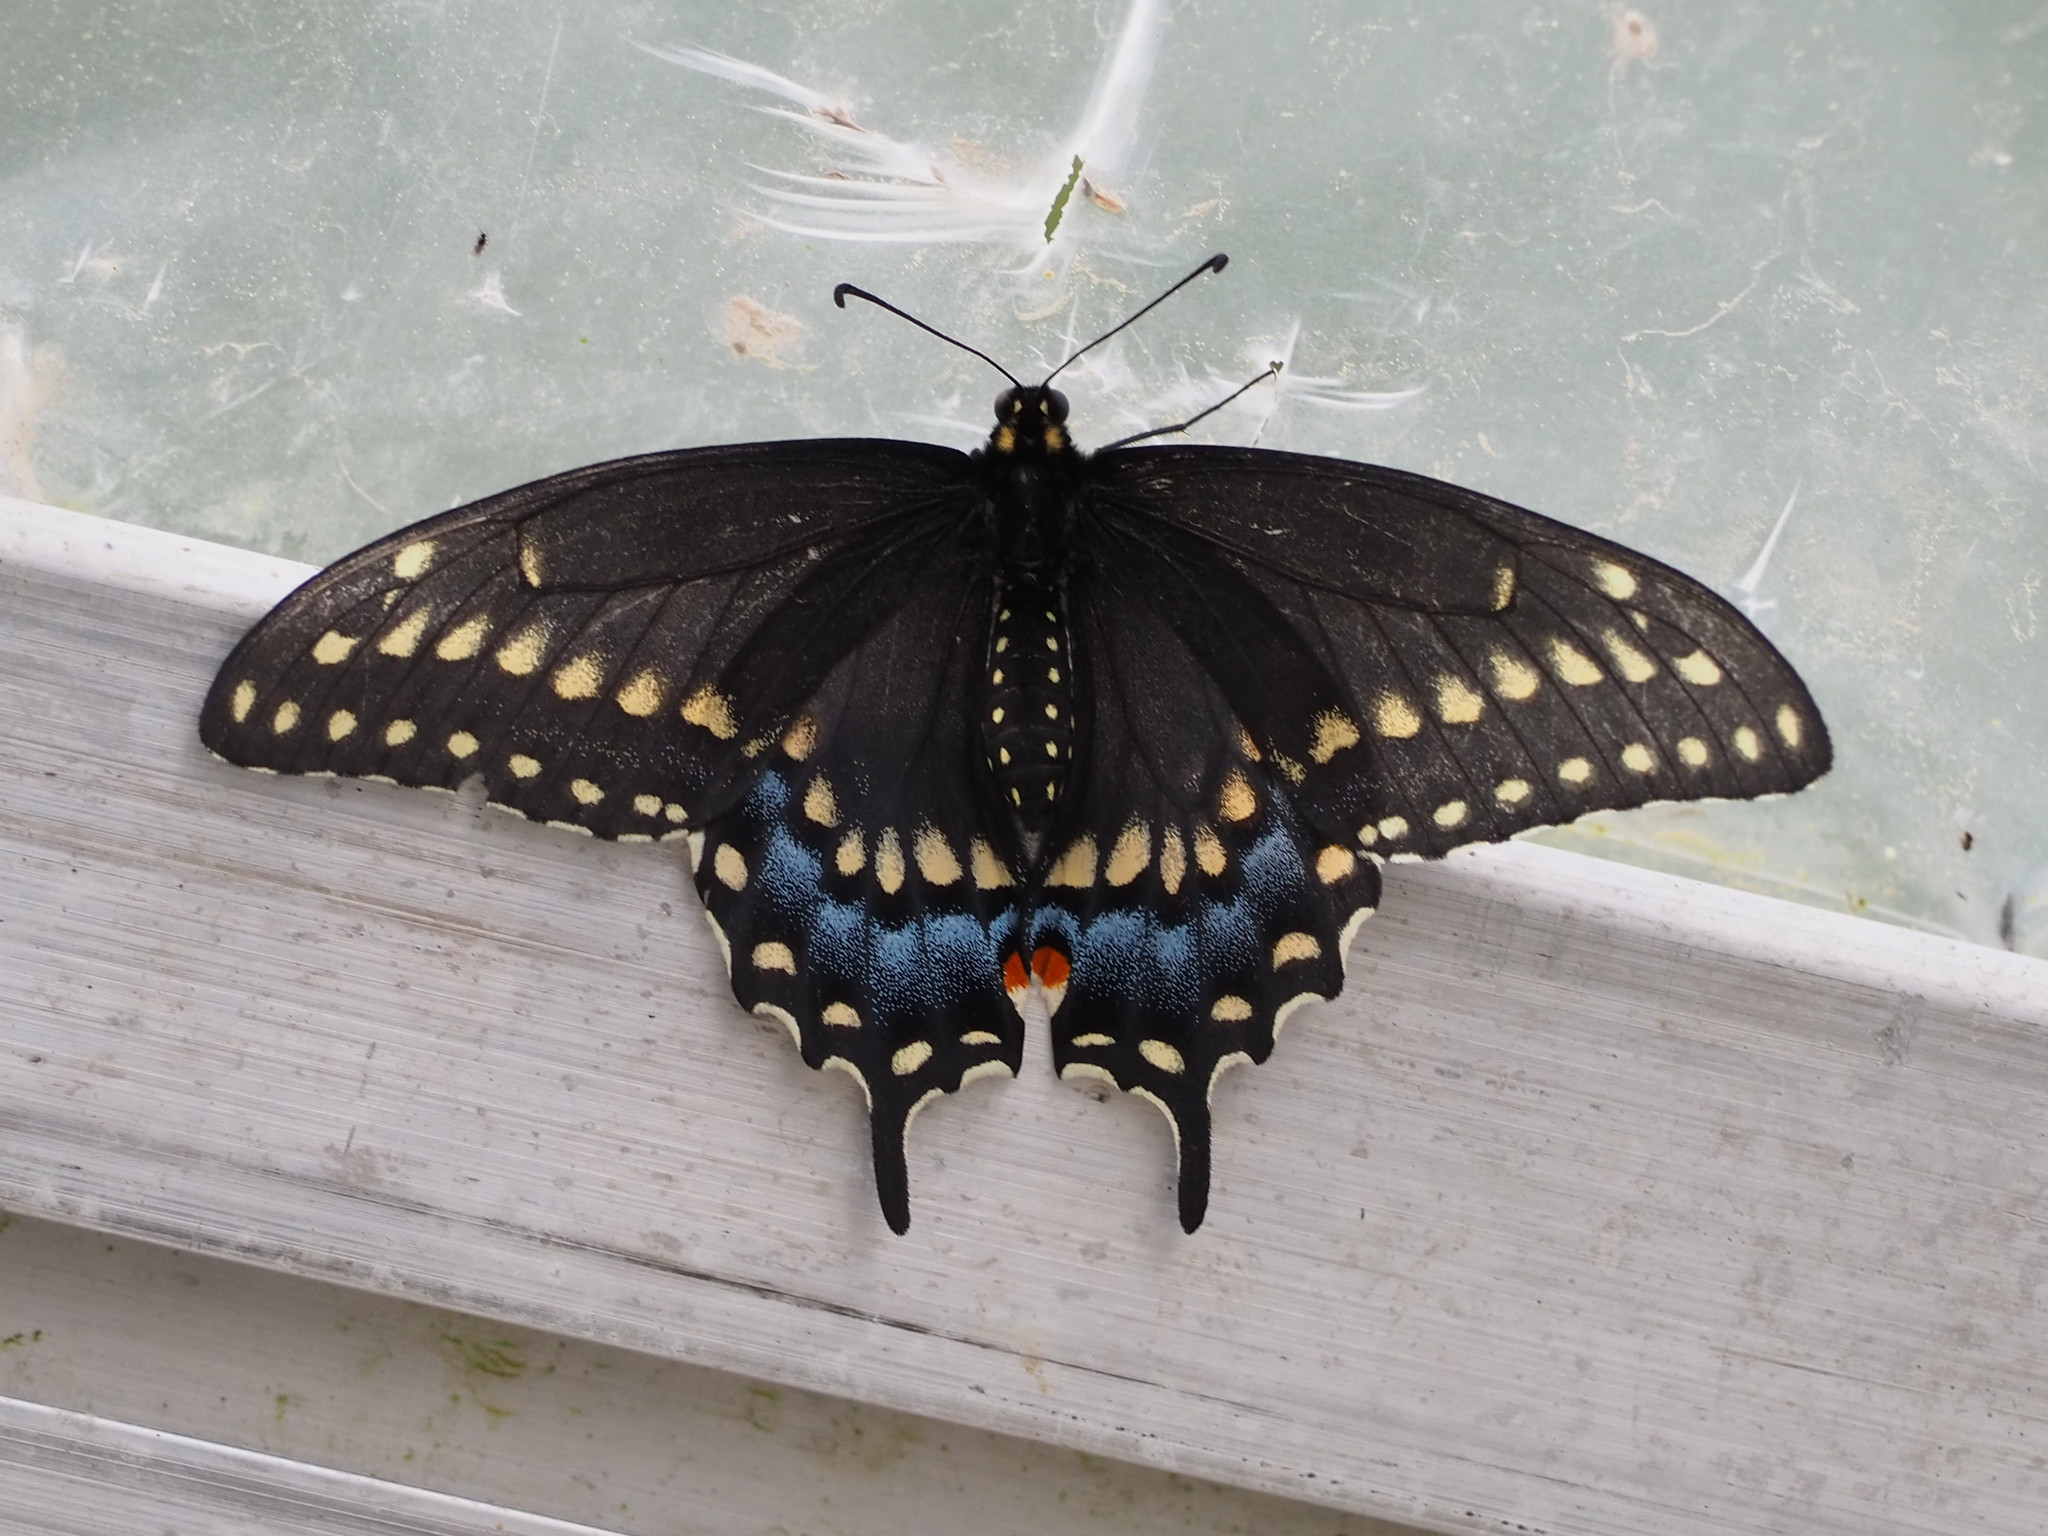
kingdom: Animalia
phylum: Arthropoda
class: Insecta
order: Lepidoptera
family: Papilionidae
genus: Papilio
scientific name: Papilio polyxenes
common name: Black swallowtail
